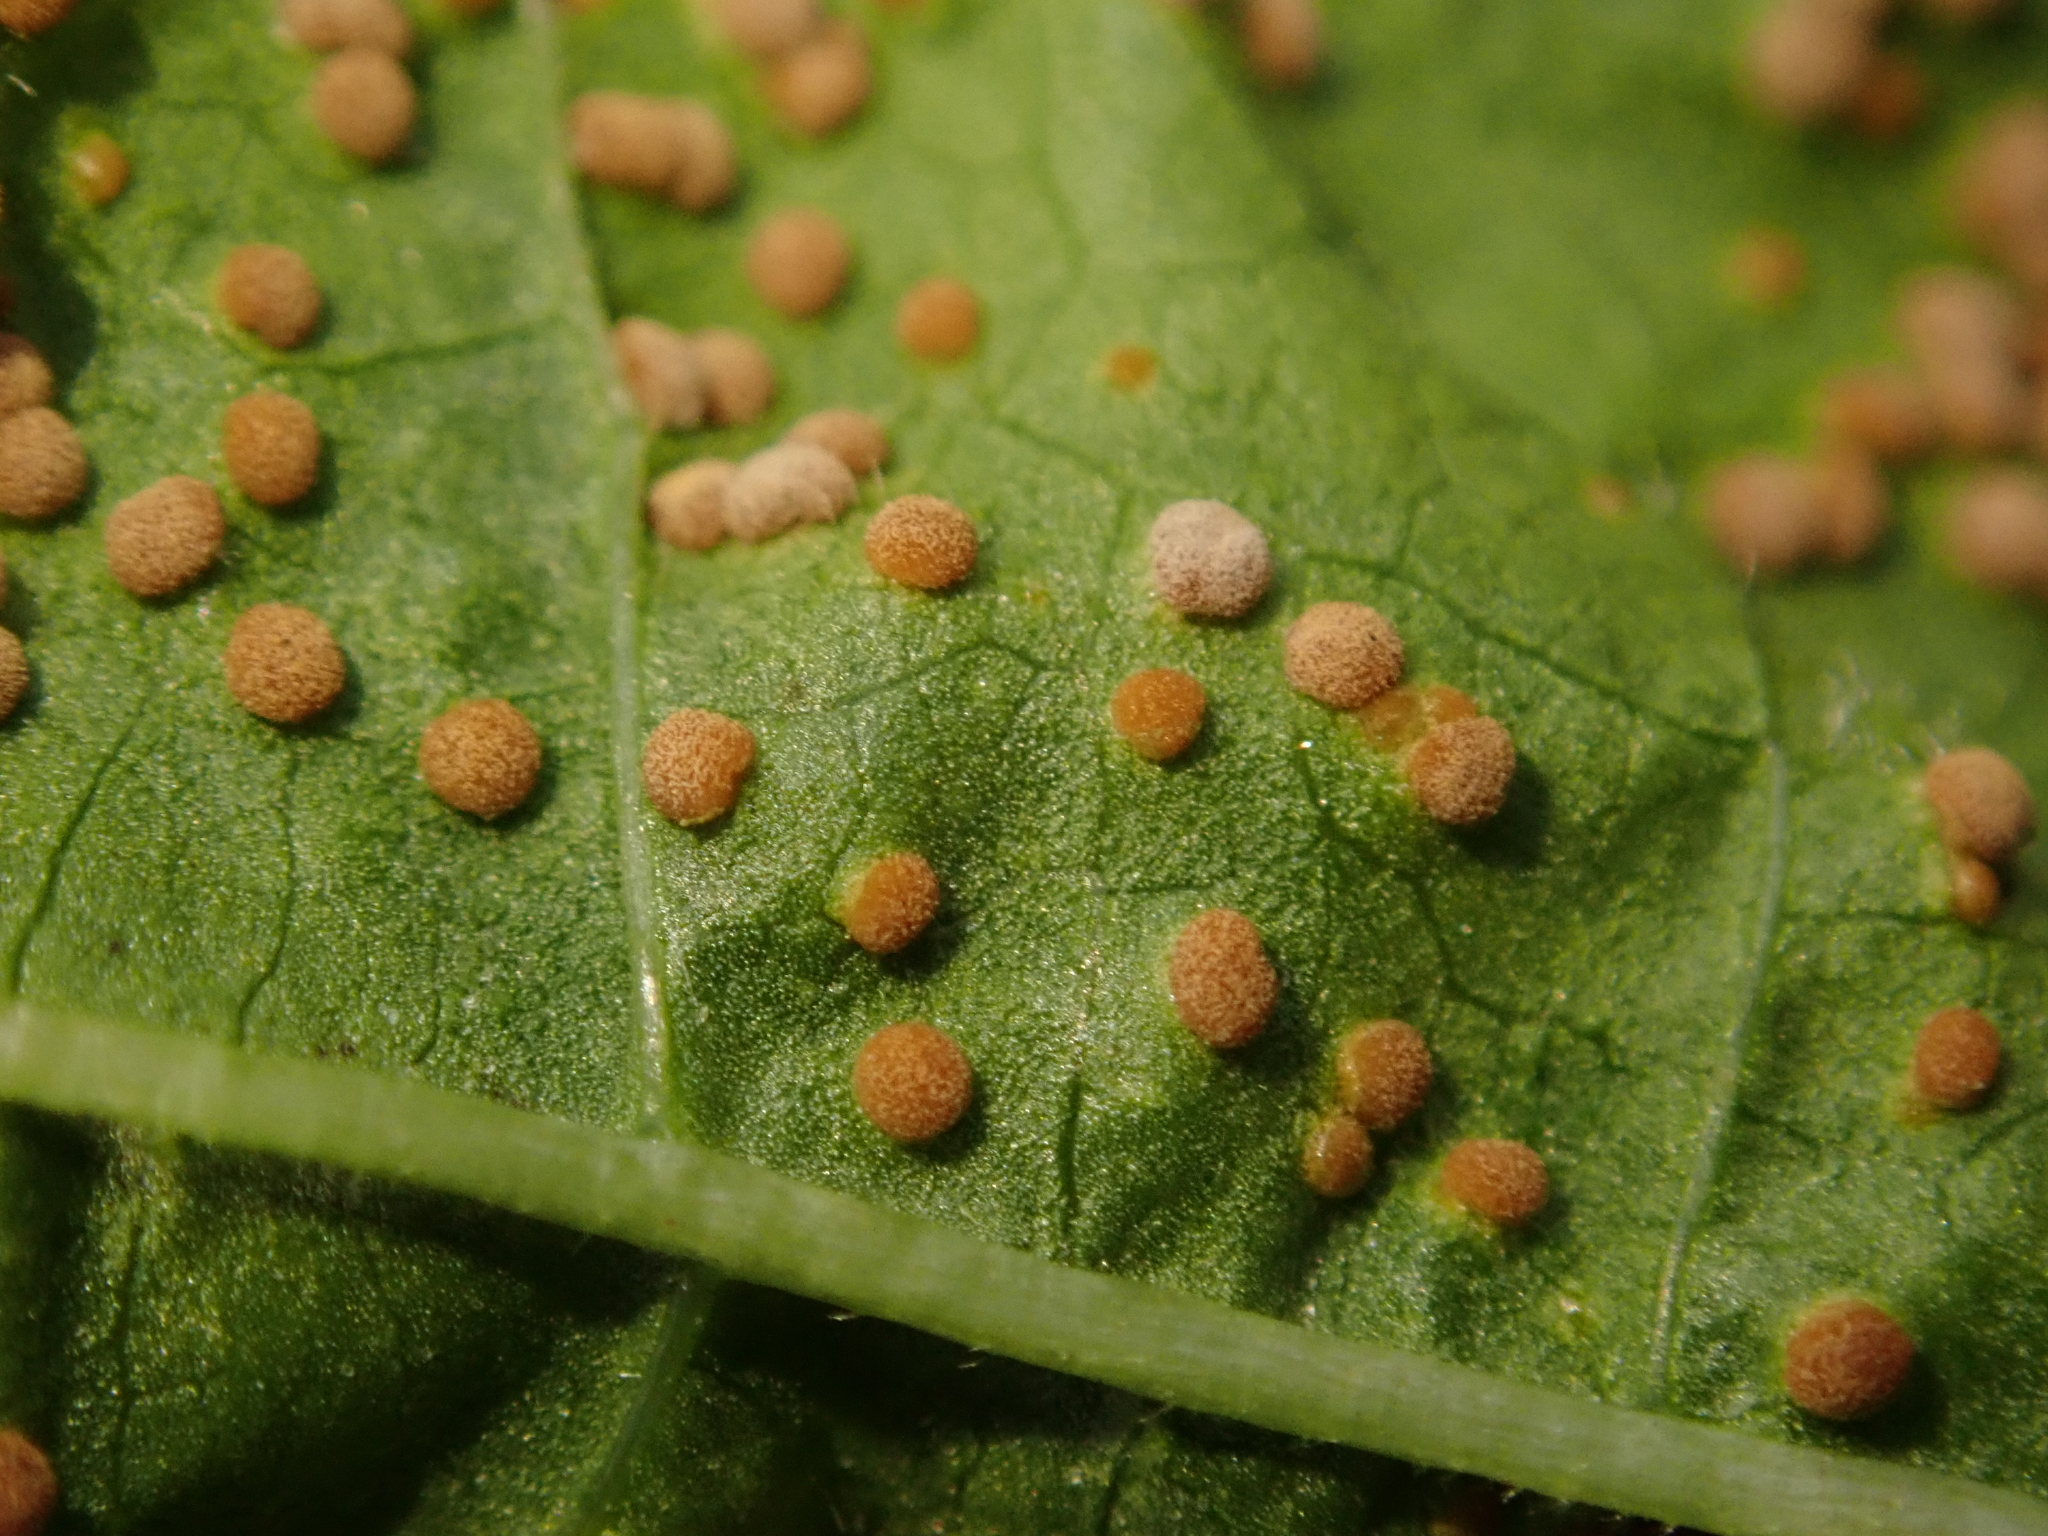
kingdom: Fungi
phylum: Basidiomycota
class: Pucciniomycetes
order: Pucciniales
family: Pucciniaceae
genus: Puccinia
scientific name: Puccinia malvacearum
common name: Hollyhock rust
